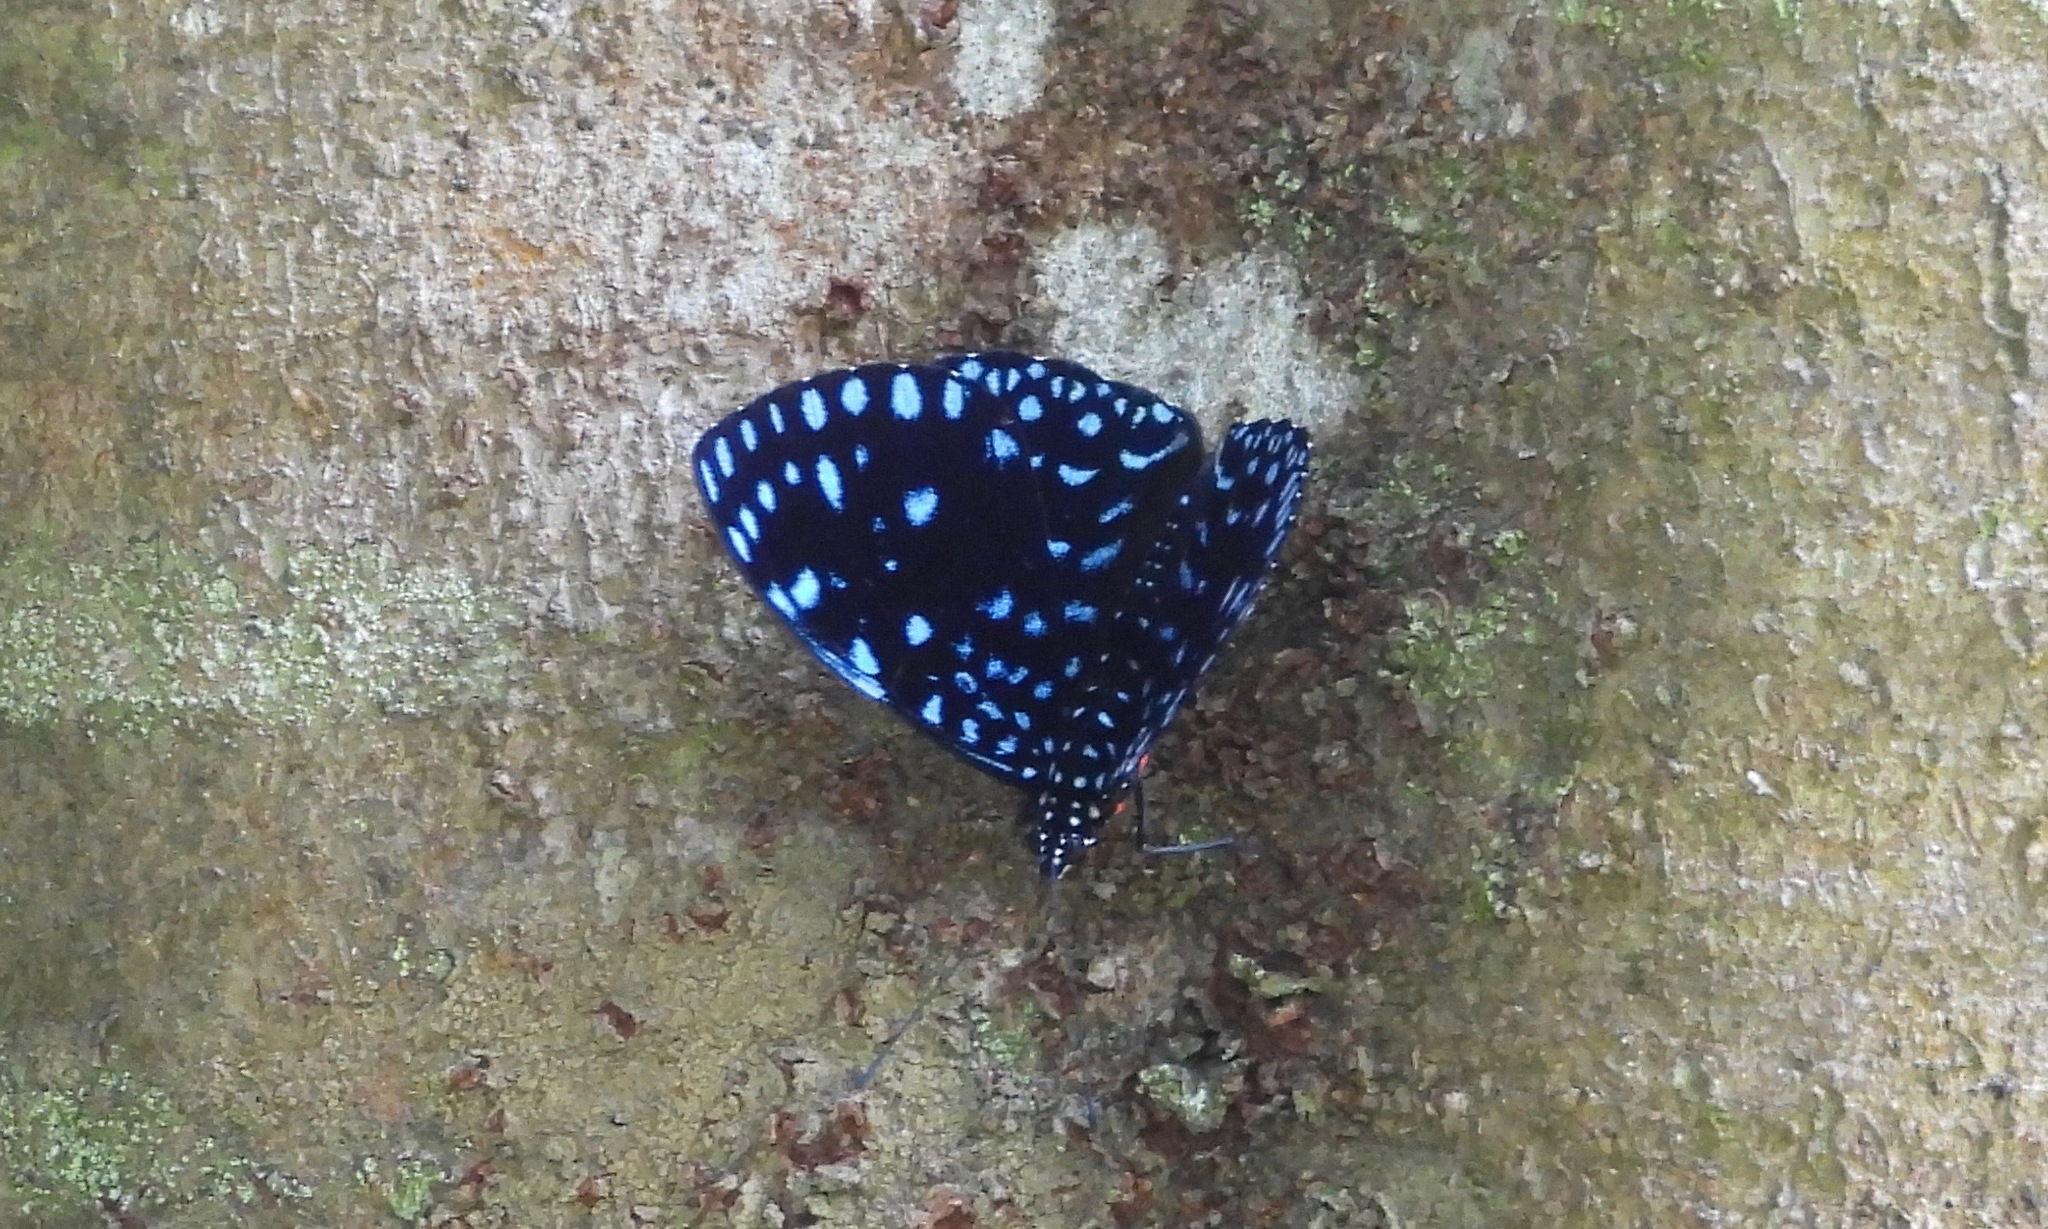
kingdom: Animalia
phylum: Arthropoda
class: Insecta
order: Lepidoptera
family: Nymphalidae
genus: Hamadryas
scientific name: Hamadryas laodamia
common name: Starry night cracker
